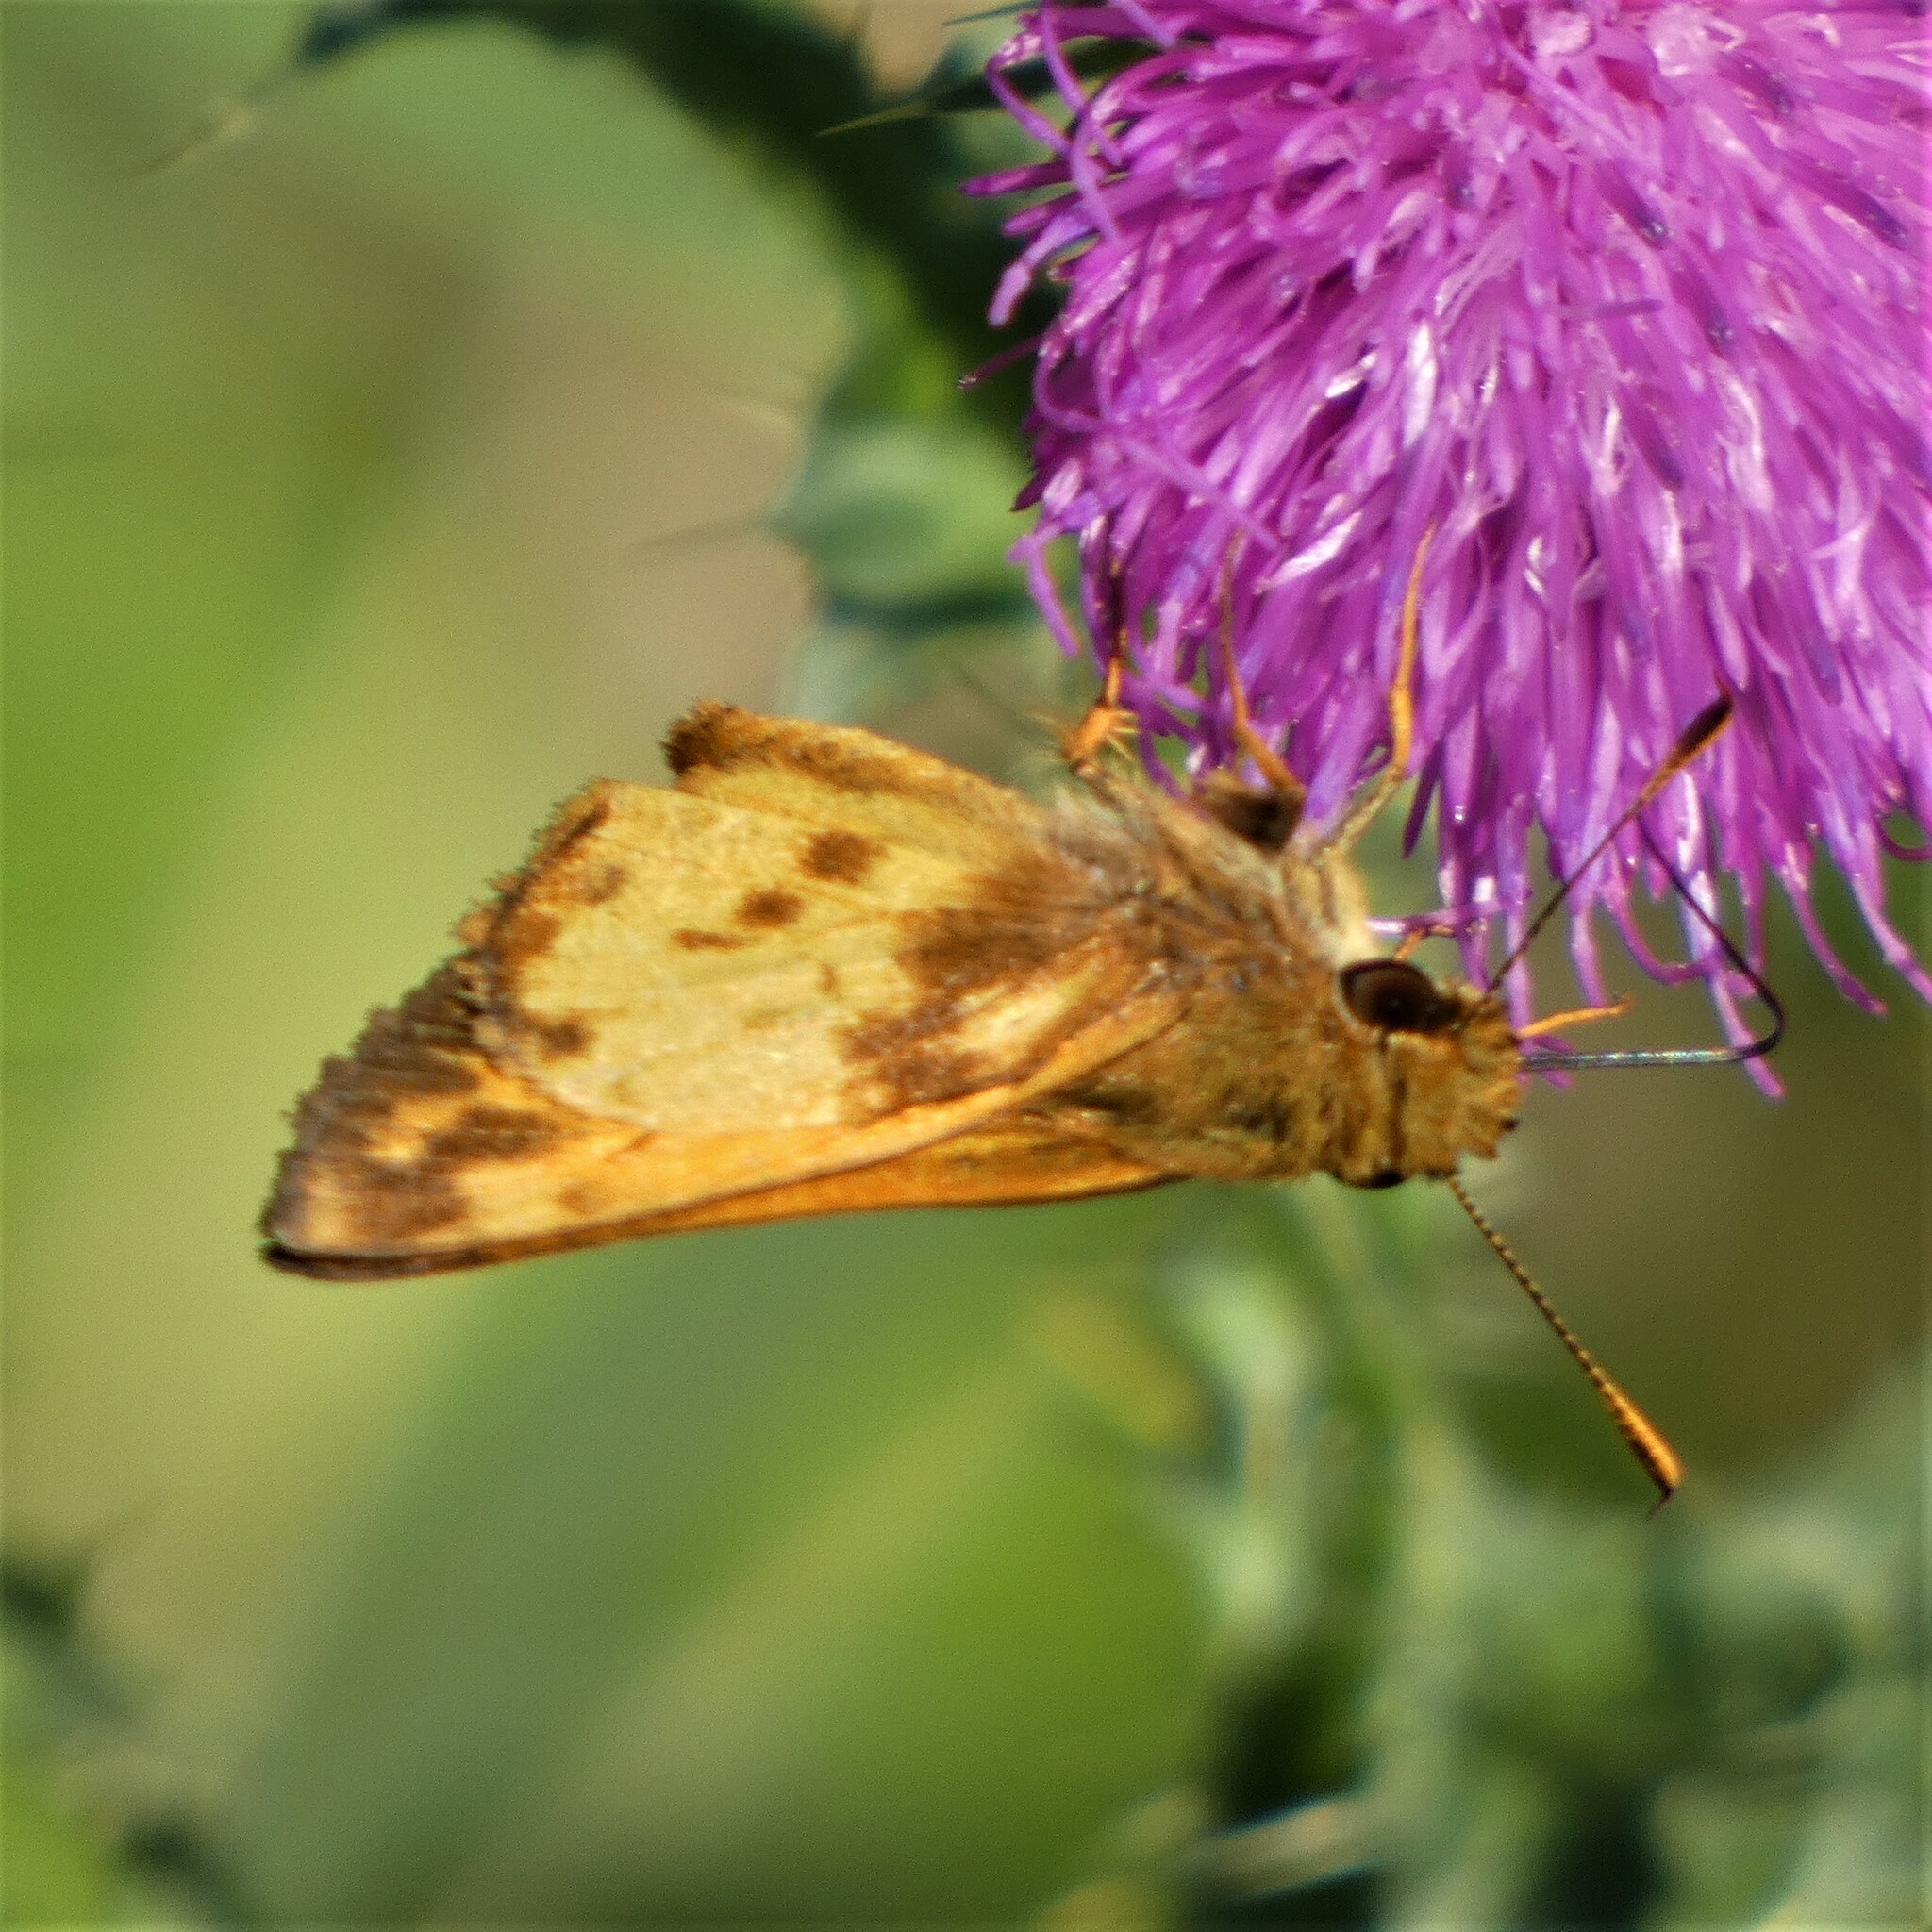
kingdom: Animalia
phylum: Arthropoda
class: Insecta
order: Lepidoptera
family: Hesperiidae
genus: Lon
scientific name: Lon zabulon
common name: Zabulon skipper
